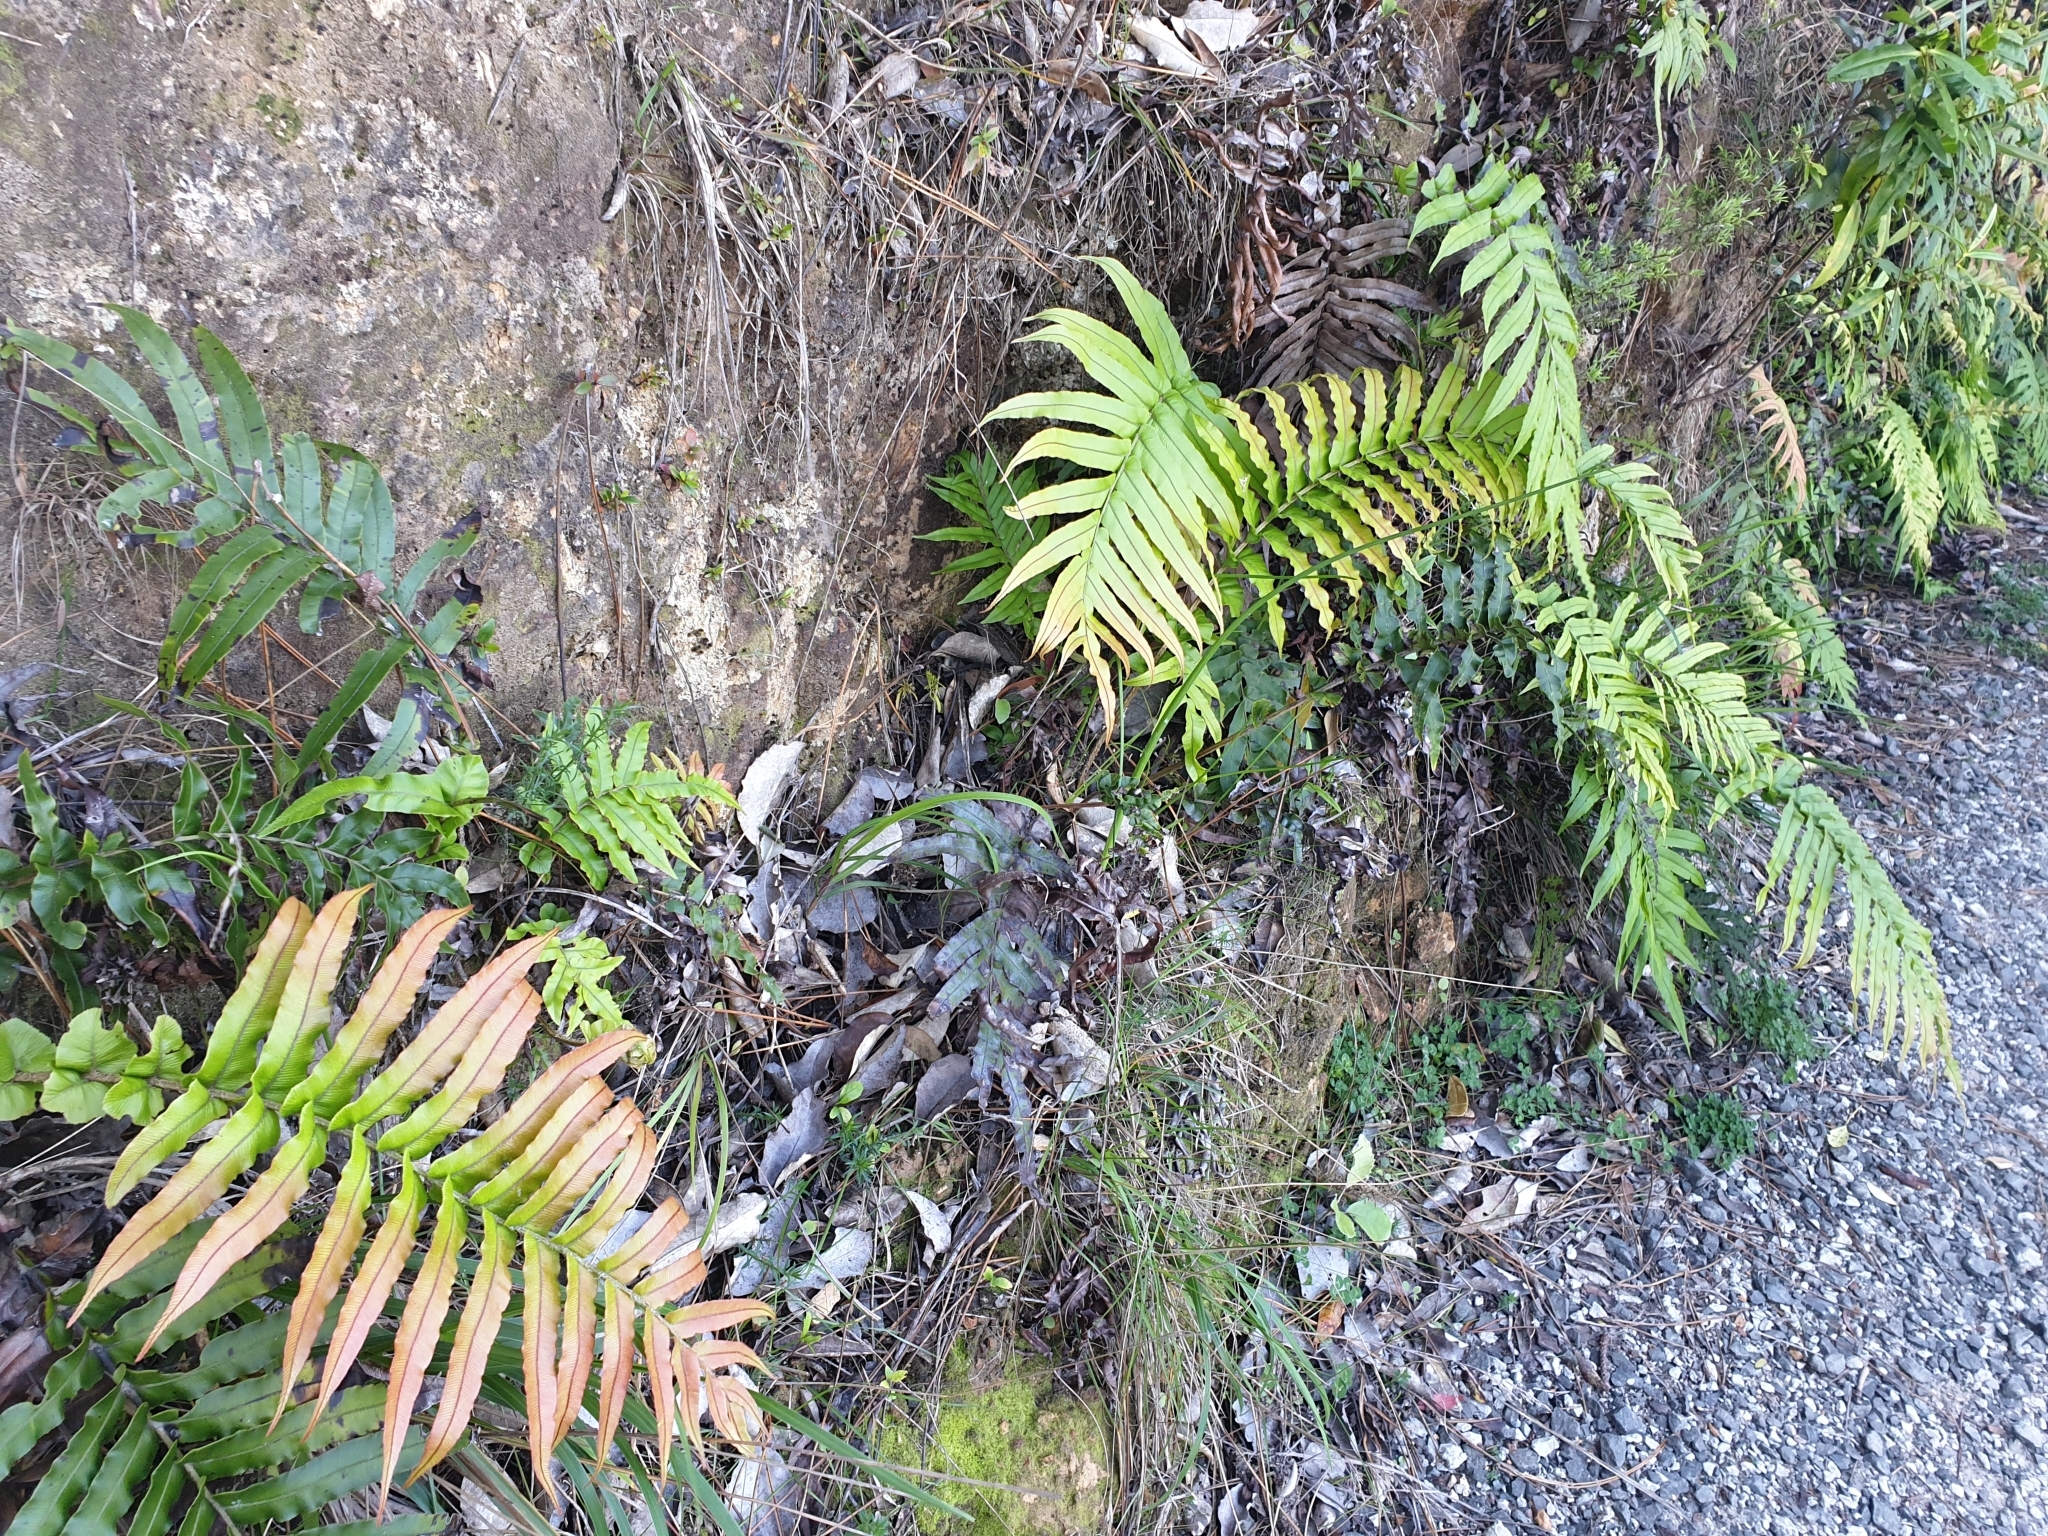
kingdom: Plantae
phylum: Tracheophyta
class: Polypodiopsida
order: Polypodiales
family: Blechnaceae
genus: Parablechnum
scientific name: Parablechnum novae-zelandiae
